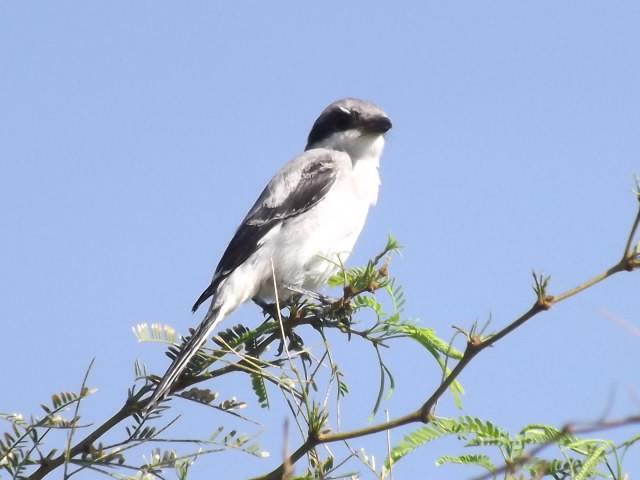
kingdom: Animalia
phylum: Chordata
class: Aves
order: Passeriformes
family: Laniidae
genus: Lanius
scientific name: Lanius ludovicianus
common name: Loggerhead shrike
